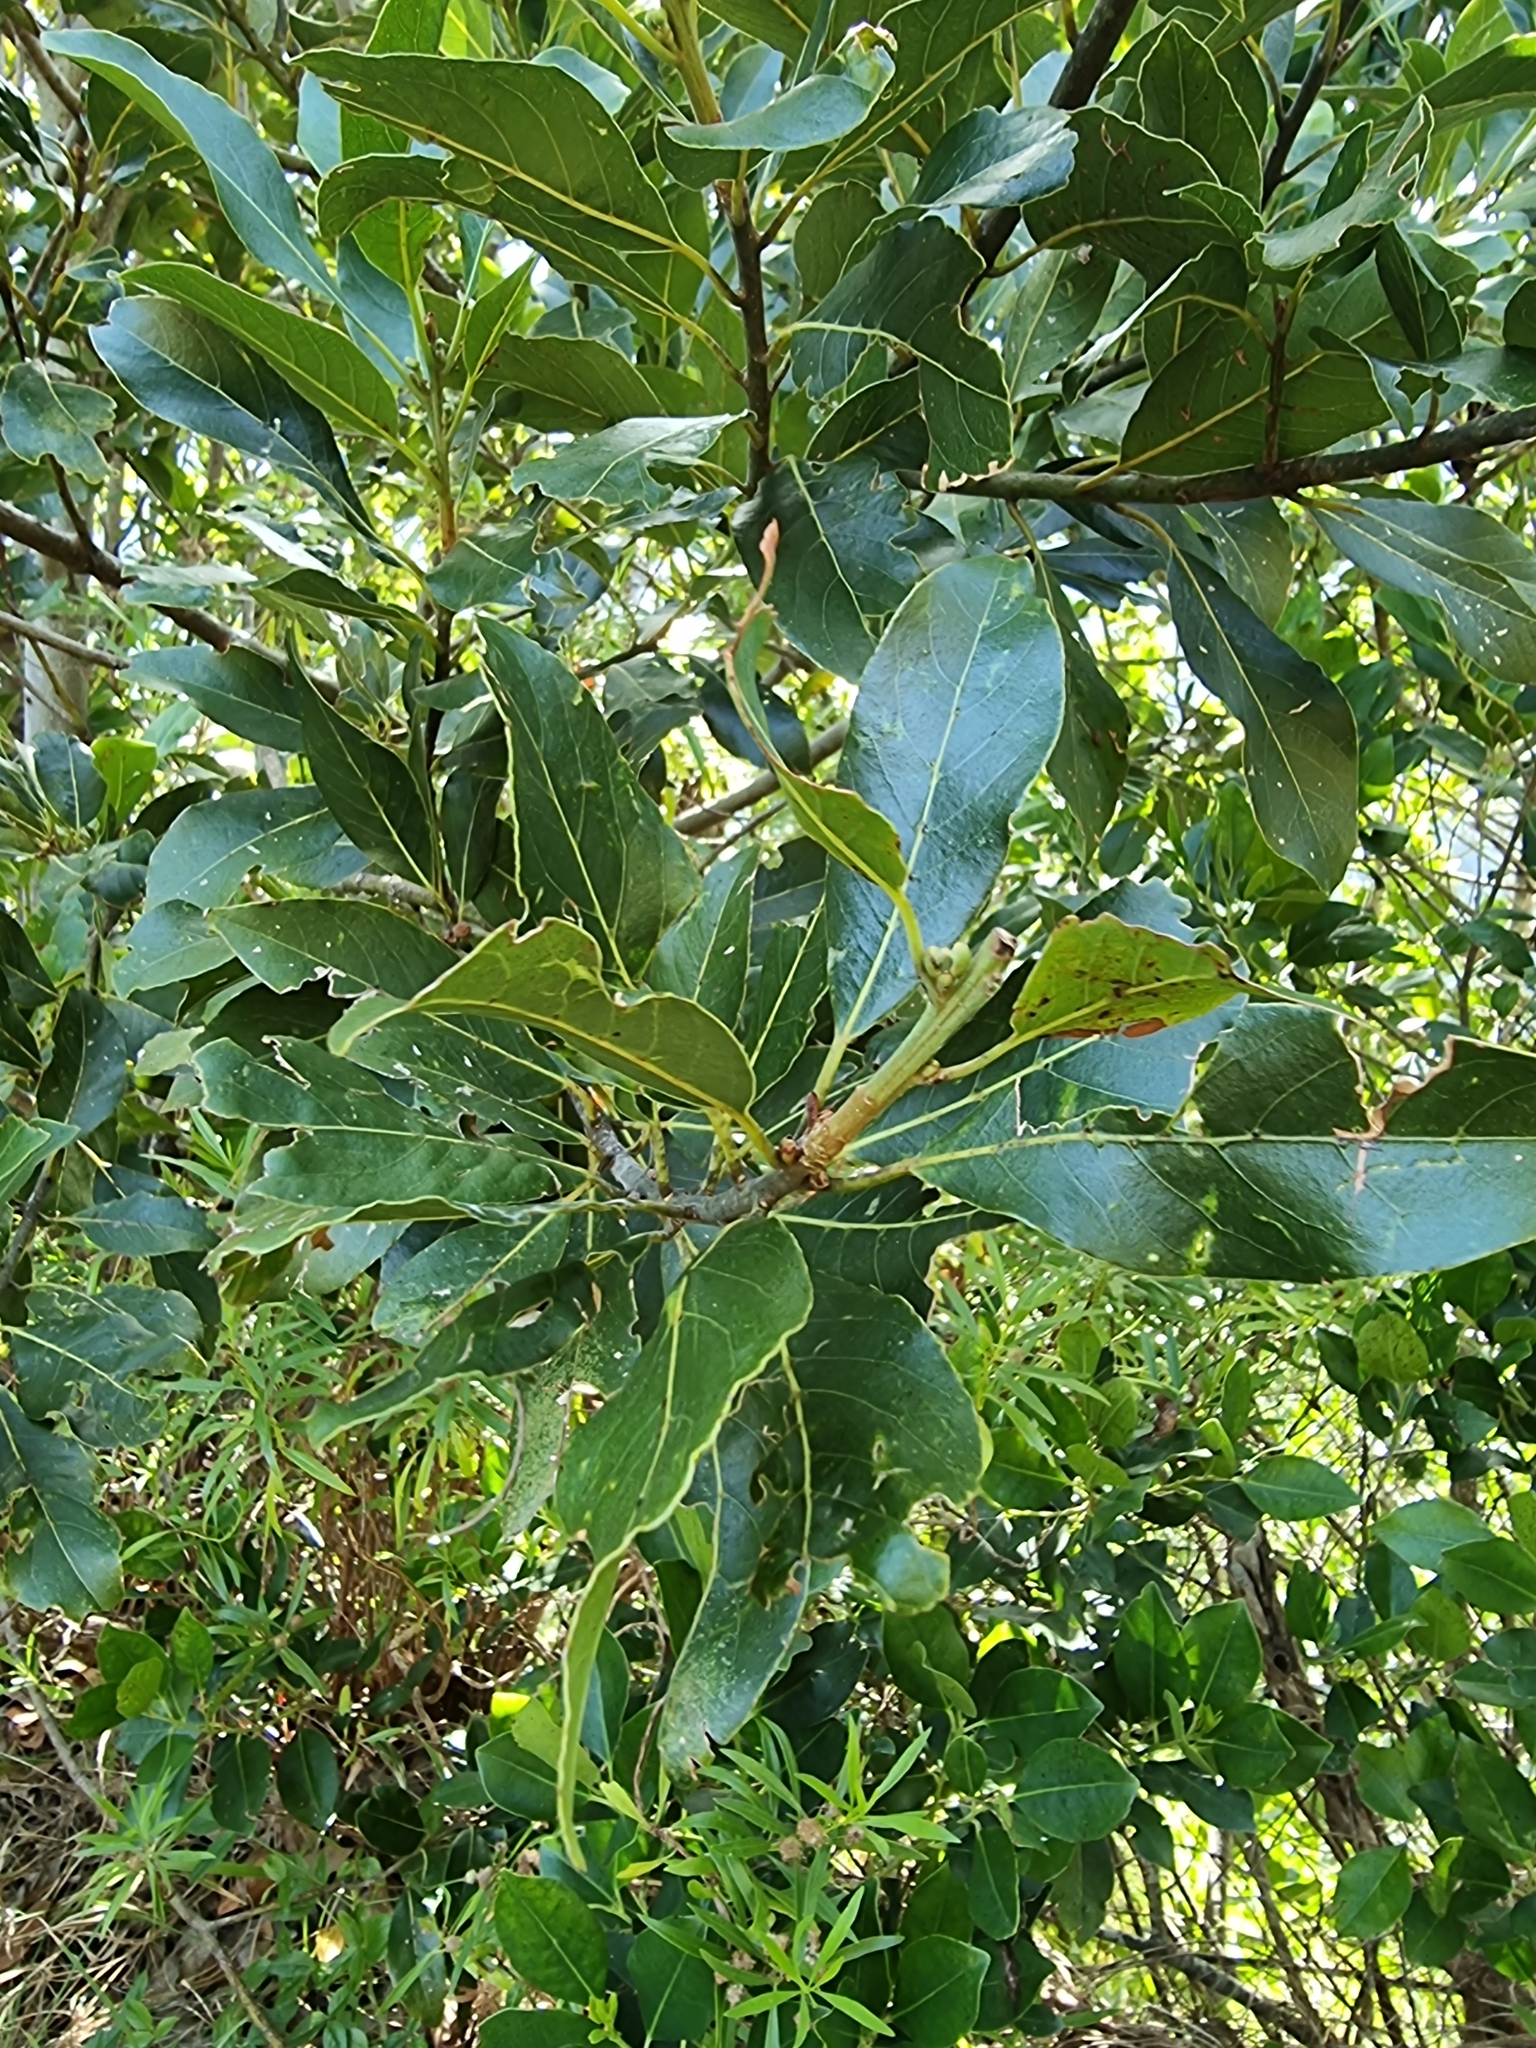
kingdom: Plantae
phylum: Tracheophyta
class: Magnoliopsida
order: Laurales
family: Lauraceae
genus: Laurus
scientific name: Laurus novocanariensis
